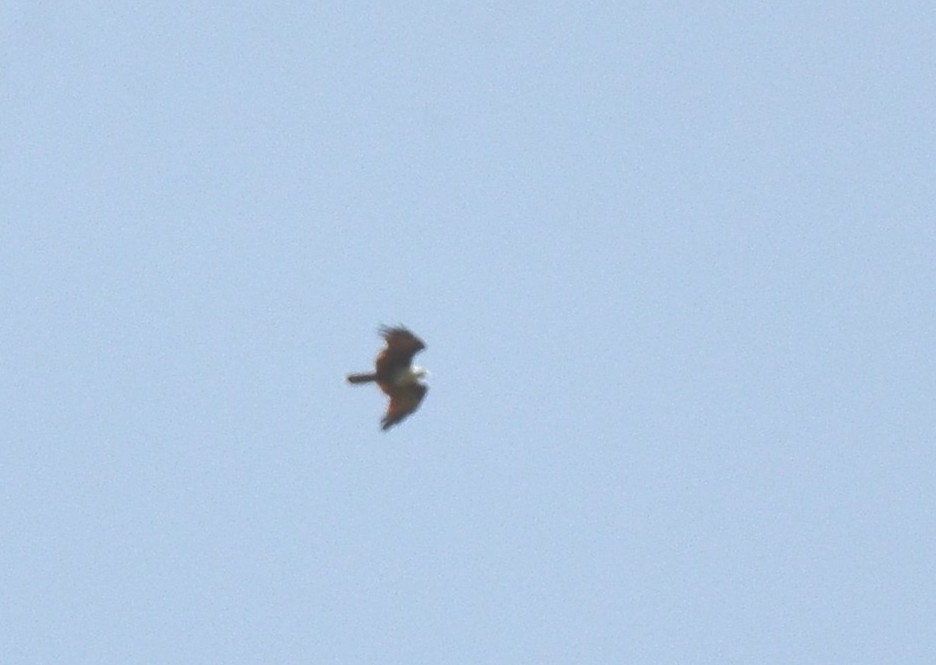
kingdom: Animalia
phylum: Chordata
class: Aves
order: Accipitriformes
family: Accipitridae
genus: Haliastur
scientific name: Haliastur indus
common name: Brahminy kite
